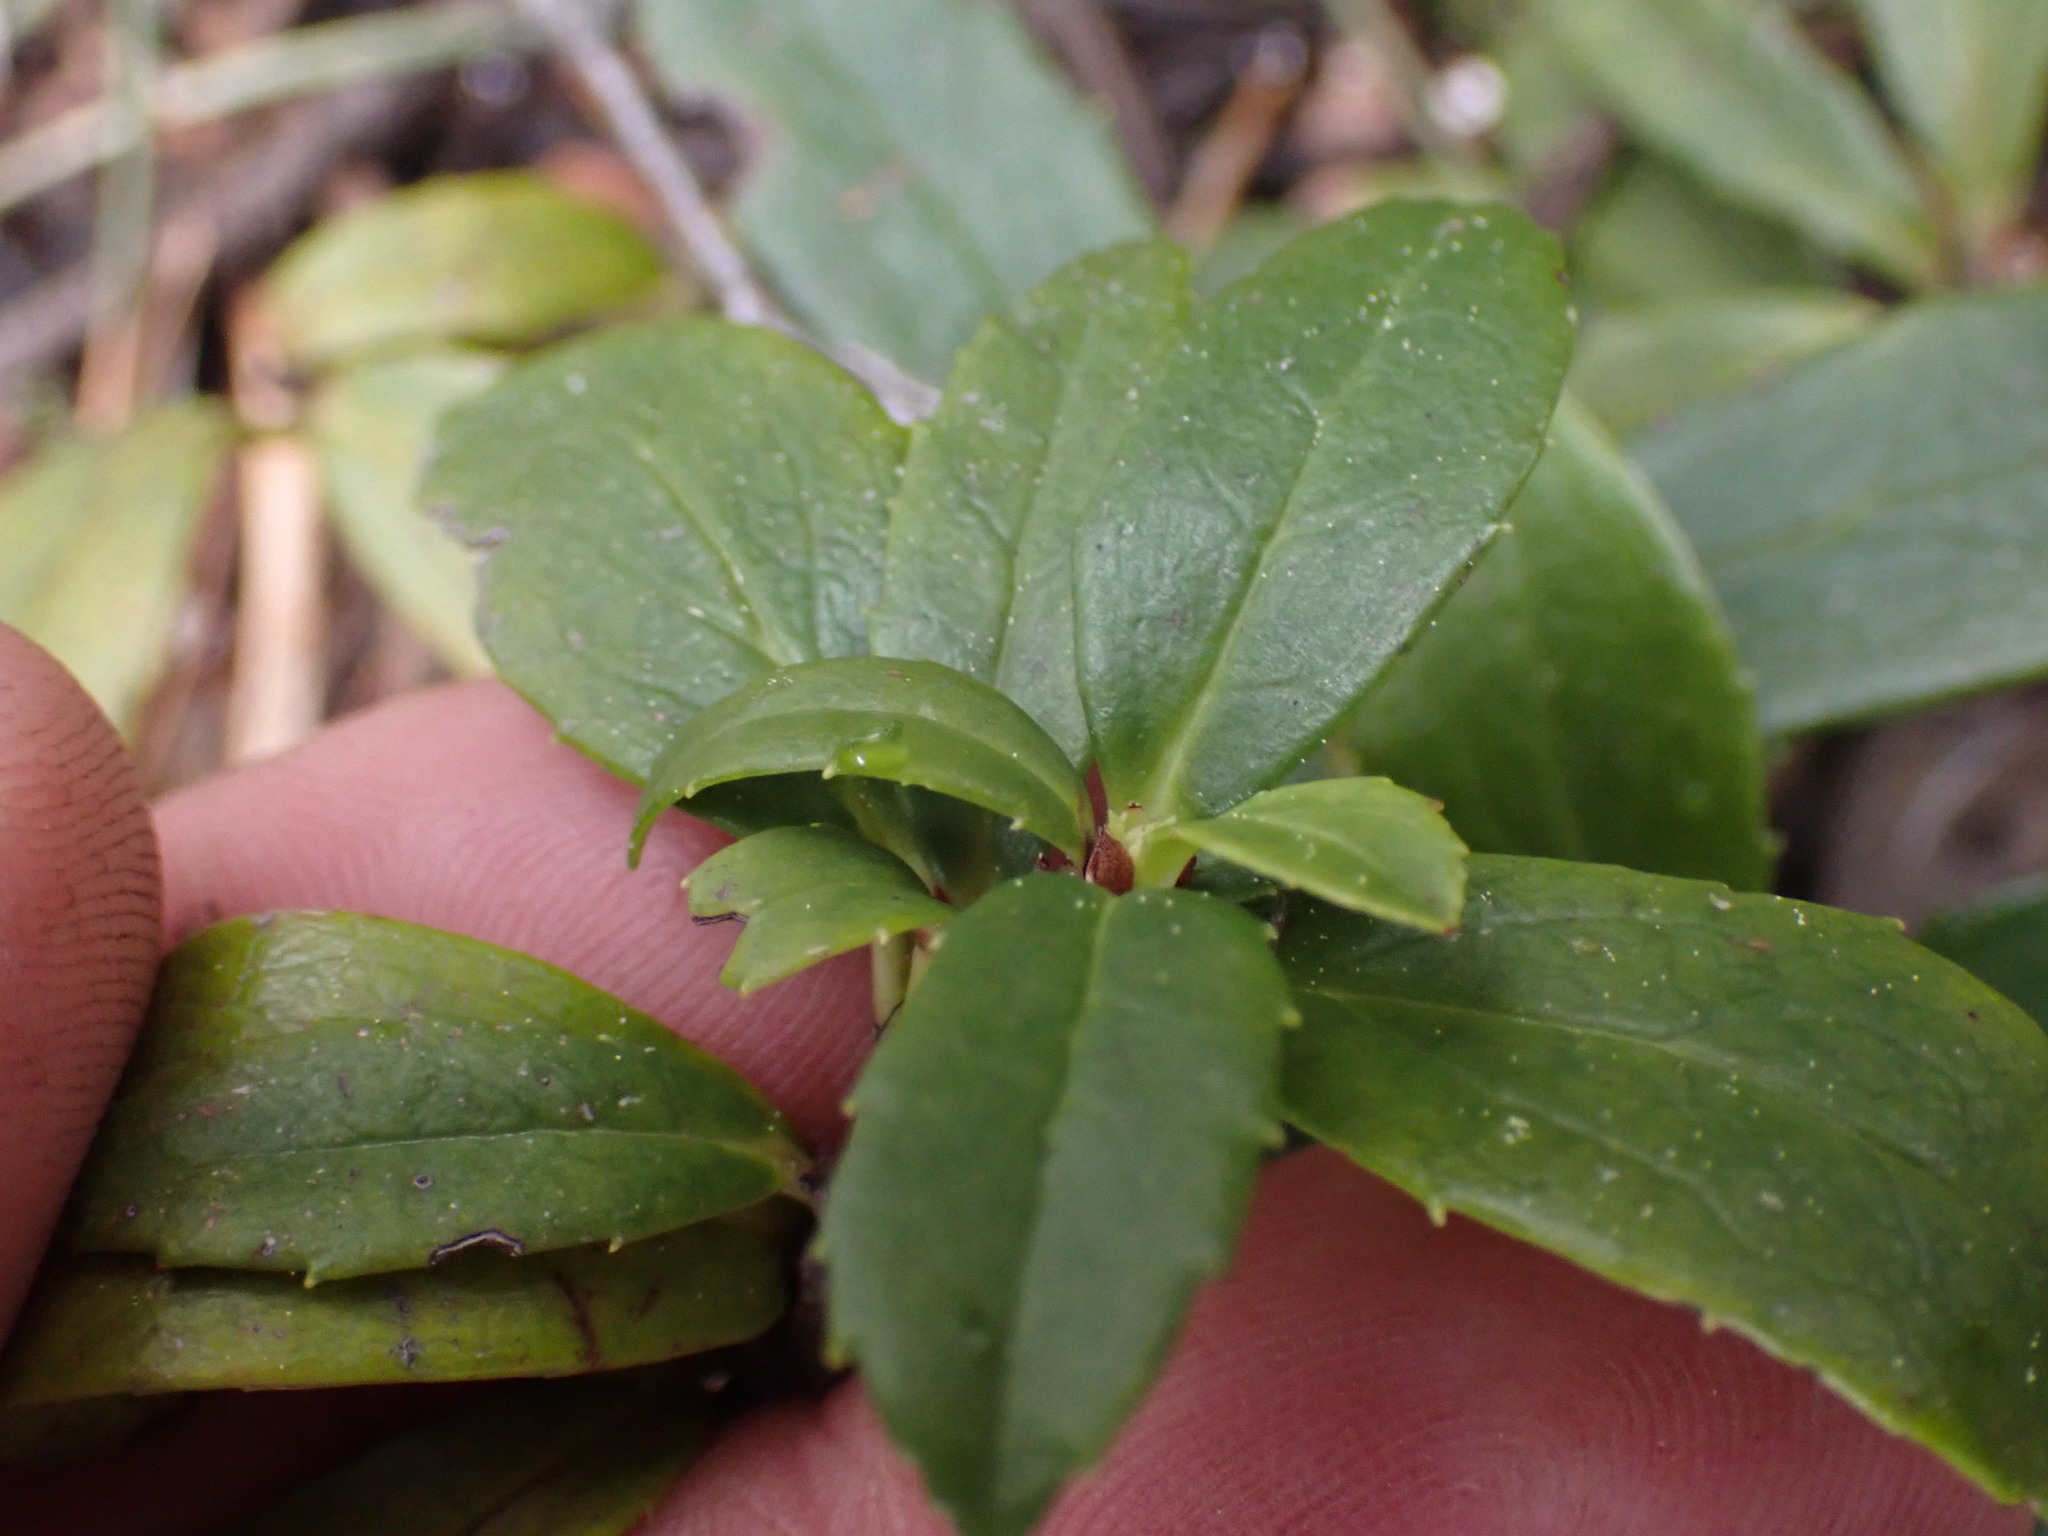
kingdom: Plantae
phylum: Tracheophyta
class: Magnoliopsida
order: Ericales
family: Ericaceae
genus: Chimaphila
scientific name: Chimaphila umbellata
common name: Pipsissewa
